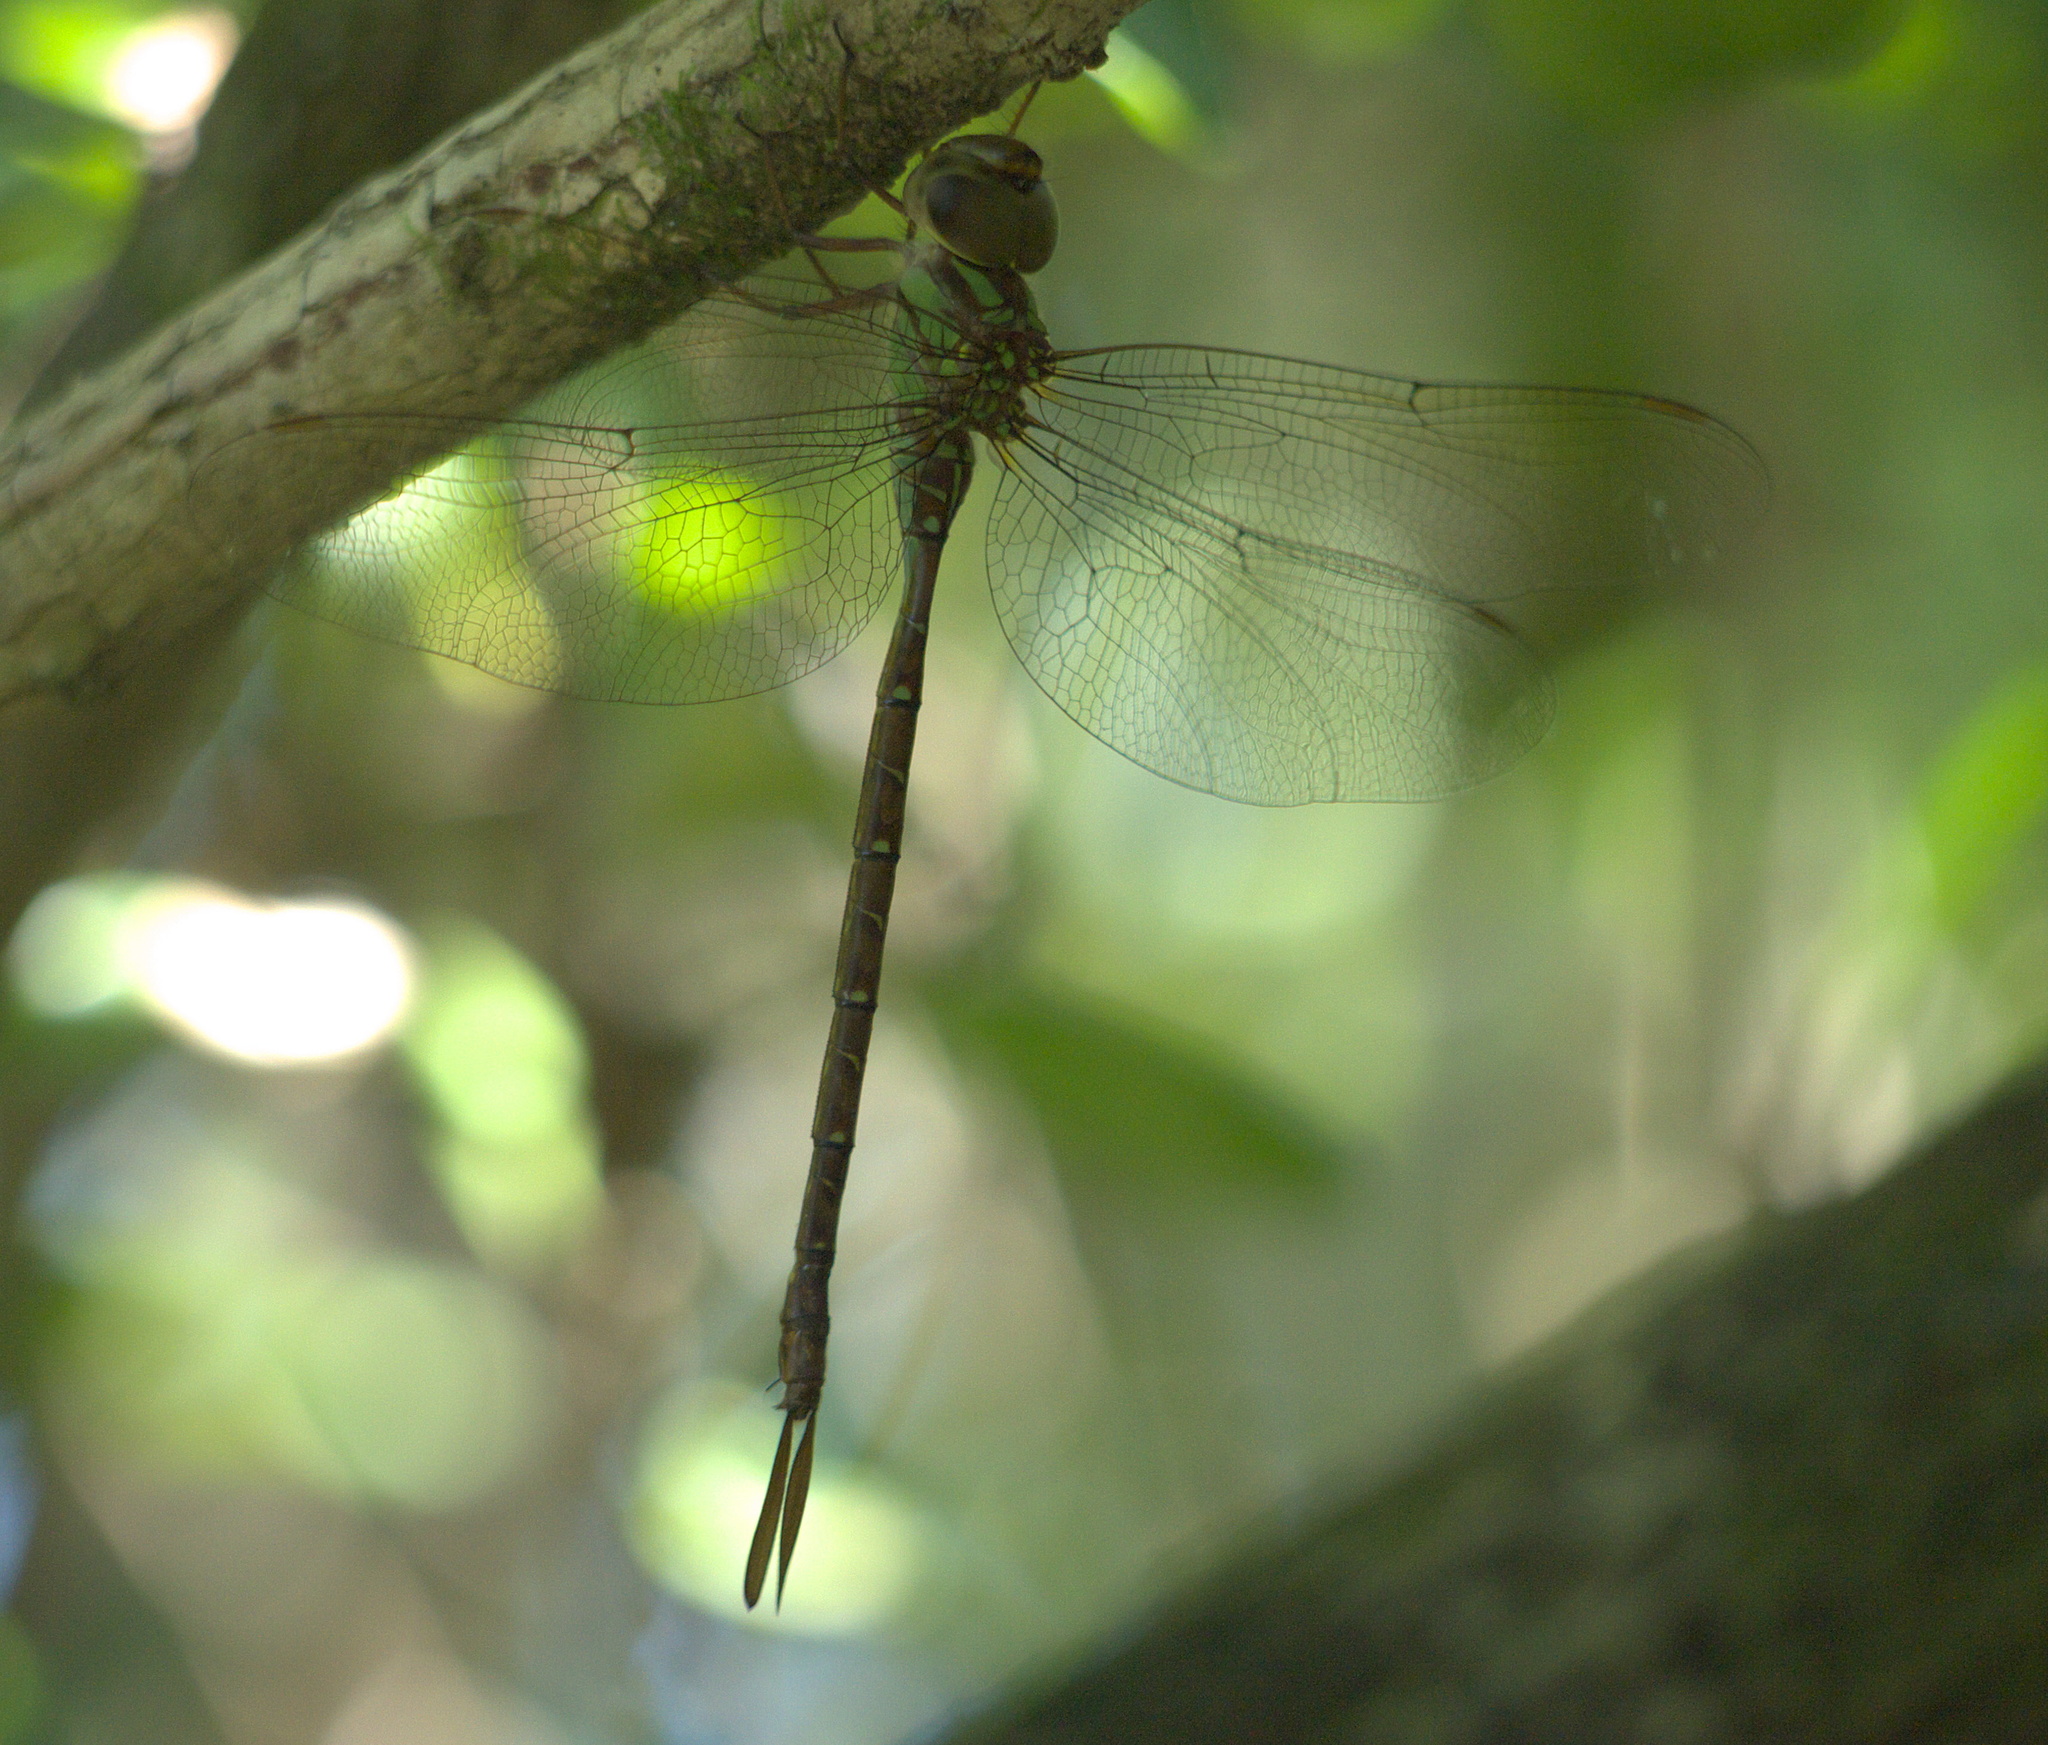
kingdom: Animalia
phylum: Arthropoda
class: Insecta
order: Odonata
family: Aeshnidae
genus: Triacanthagyna
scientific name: Triacanthagyna trifida
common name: Phantom darner
